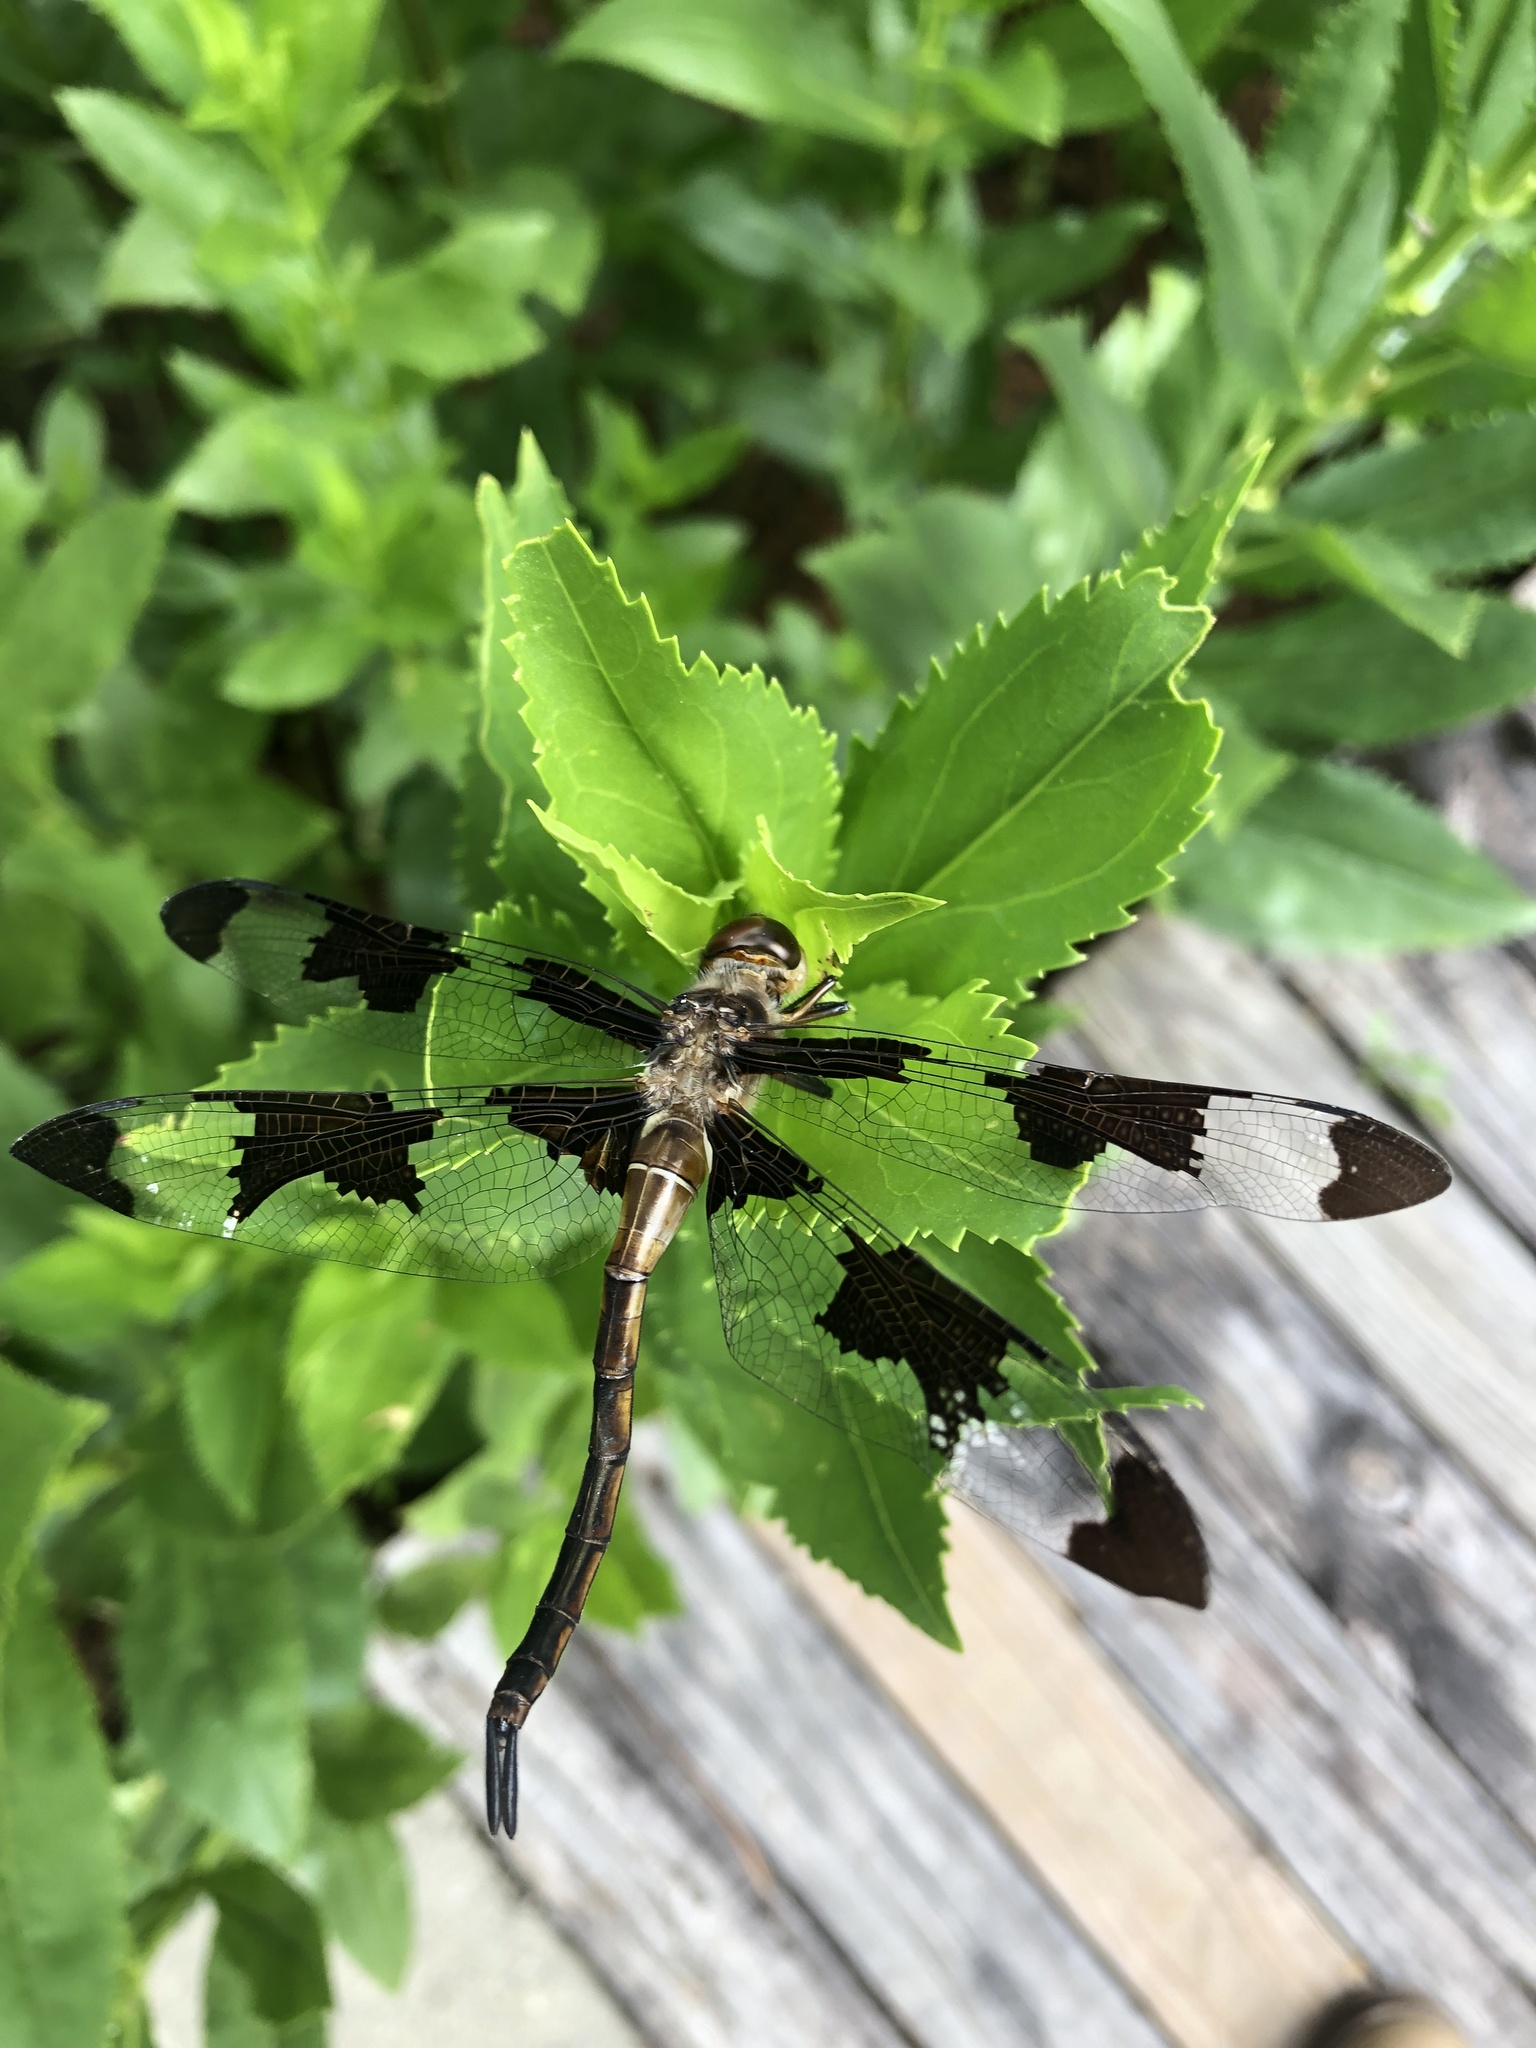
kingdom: Animalia
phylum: Arthropoda
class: Insecta
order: Odonata
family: Corduliidae
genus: Epitheca
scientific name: Epitheca princeps
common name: Prince baskettail
